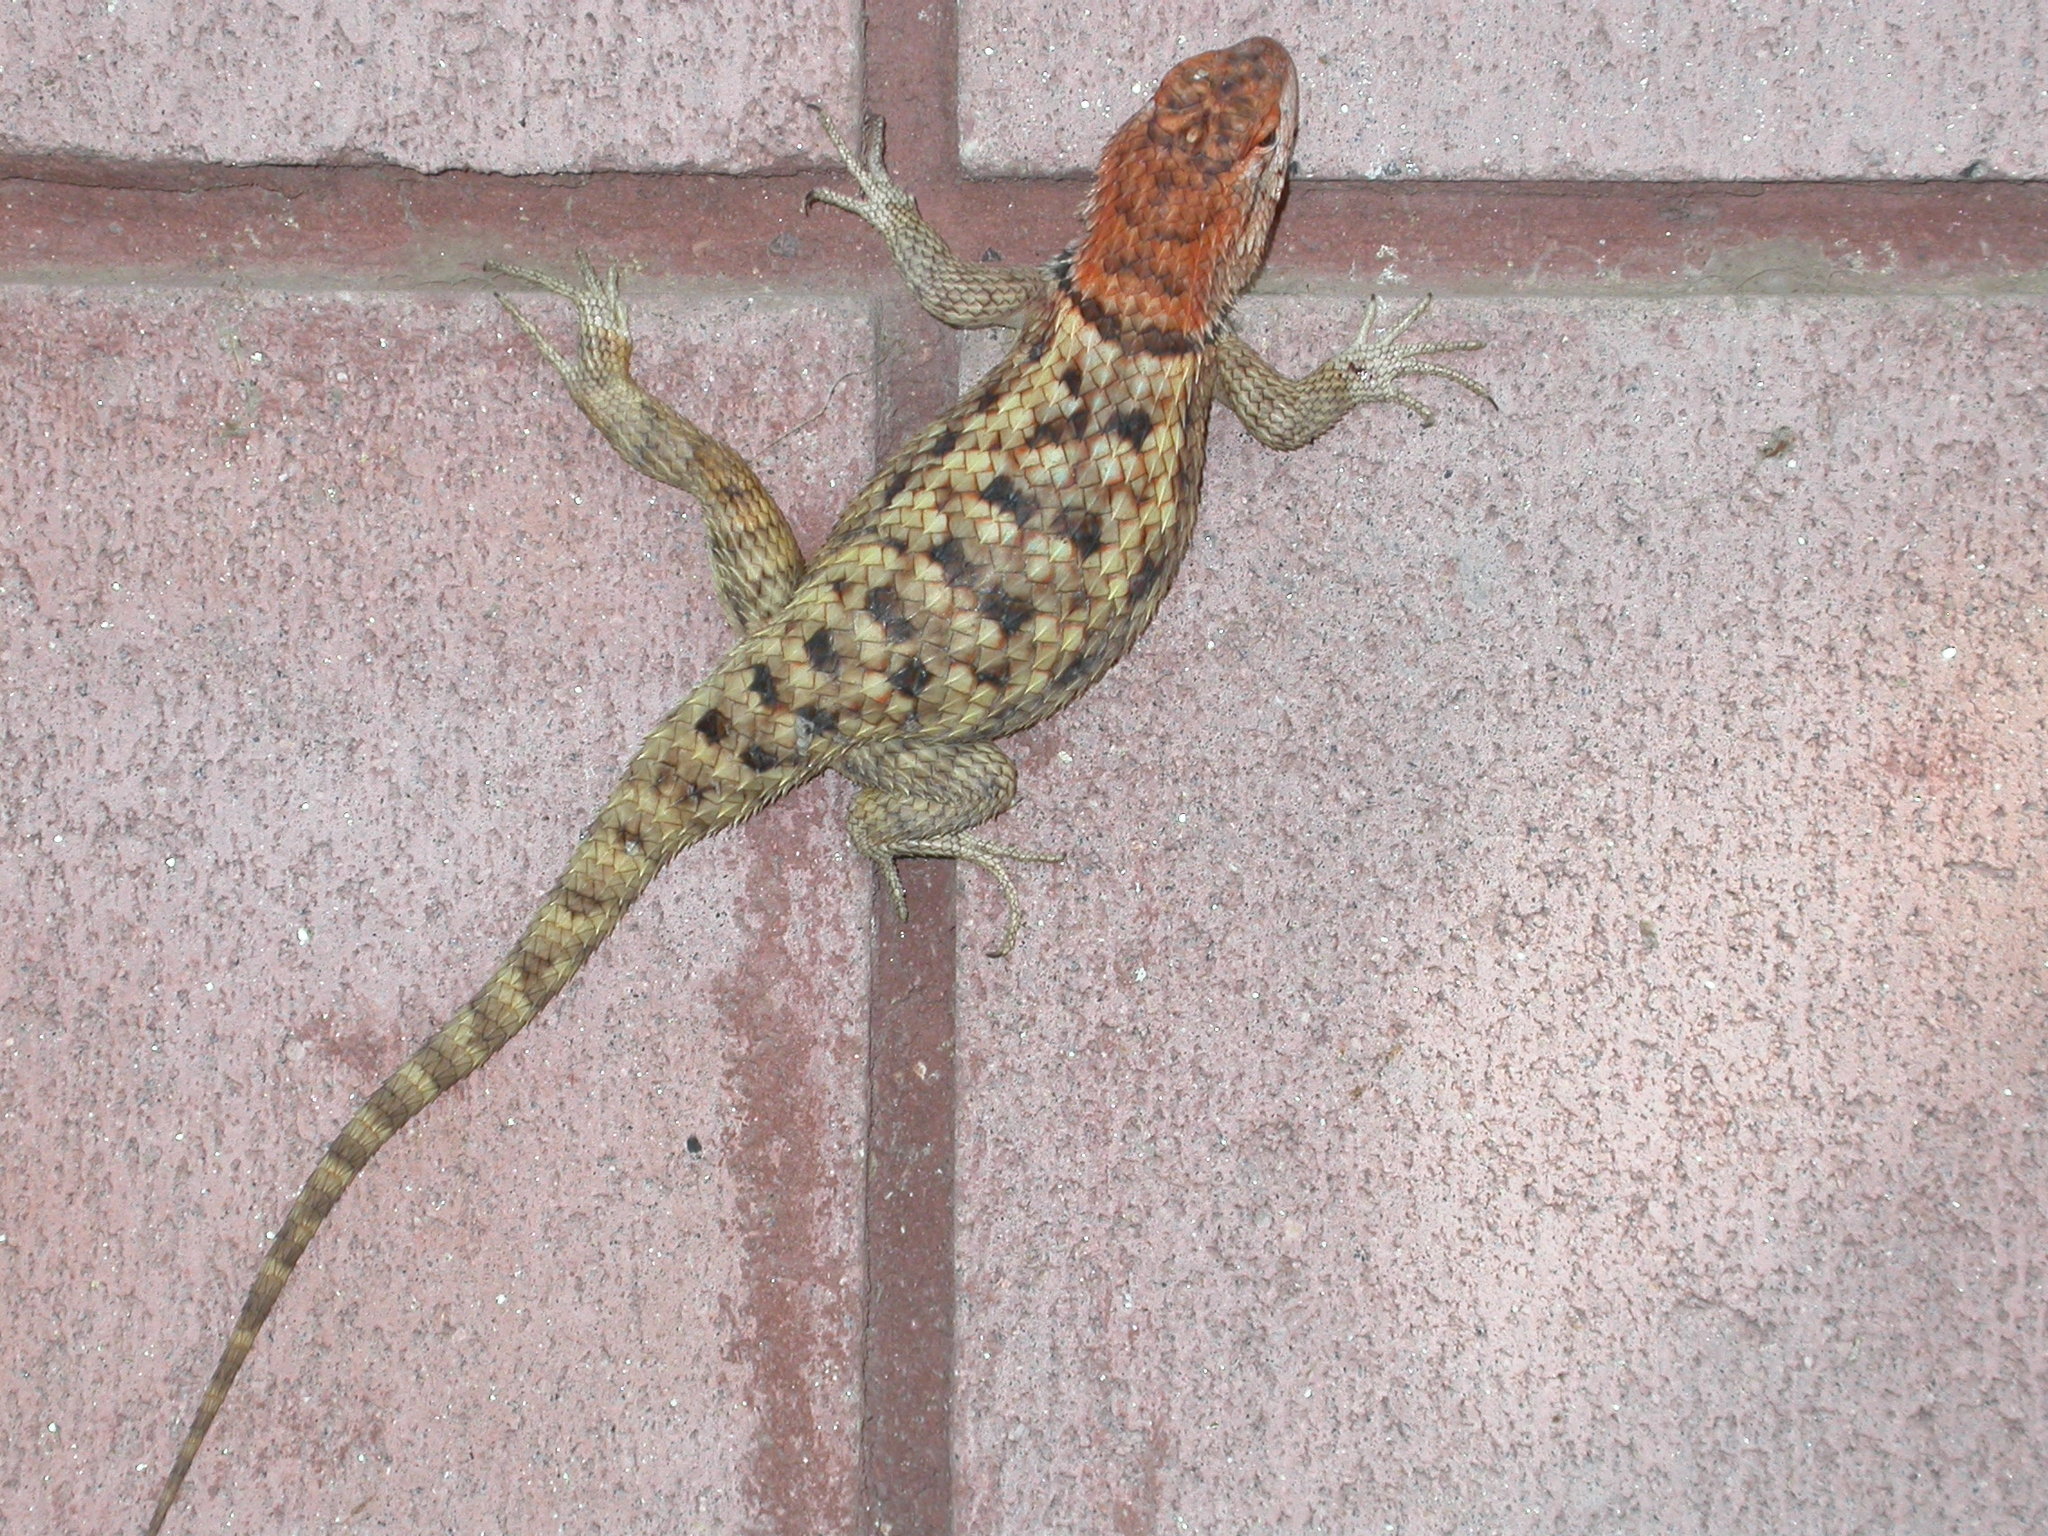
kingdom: Animalia
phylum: Chordata
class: Squamata
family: Phrynosomatidae
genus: Sceloporus
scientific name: Sceloporus magister
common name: Desert spiny lizard
